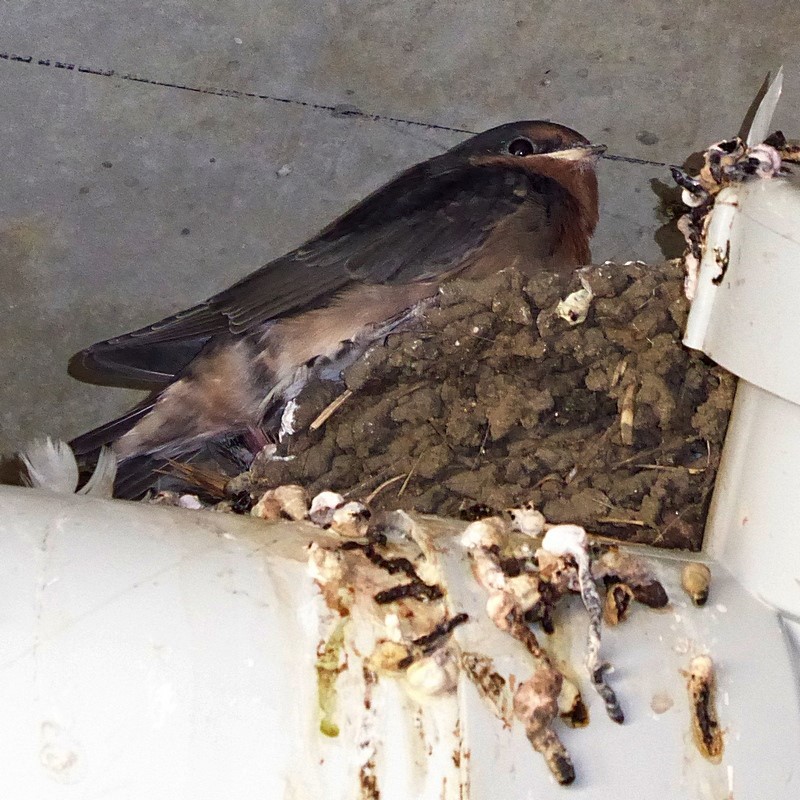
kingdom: Animalia
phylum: Chordata
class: Aves
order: Passeriformes
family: Hirundinidae
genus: Hirundo
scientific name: Hirundo neoxena
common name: Welcome swallow
